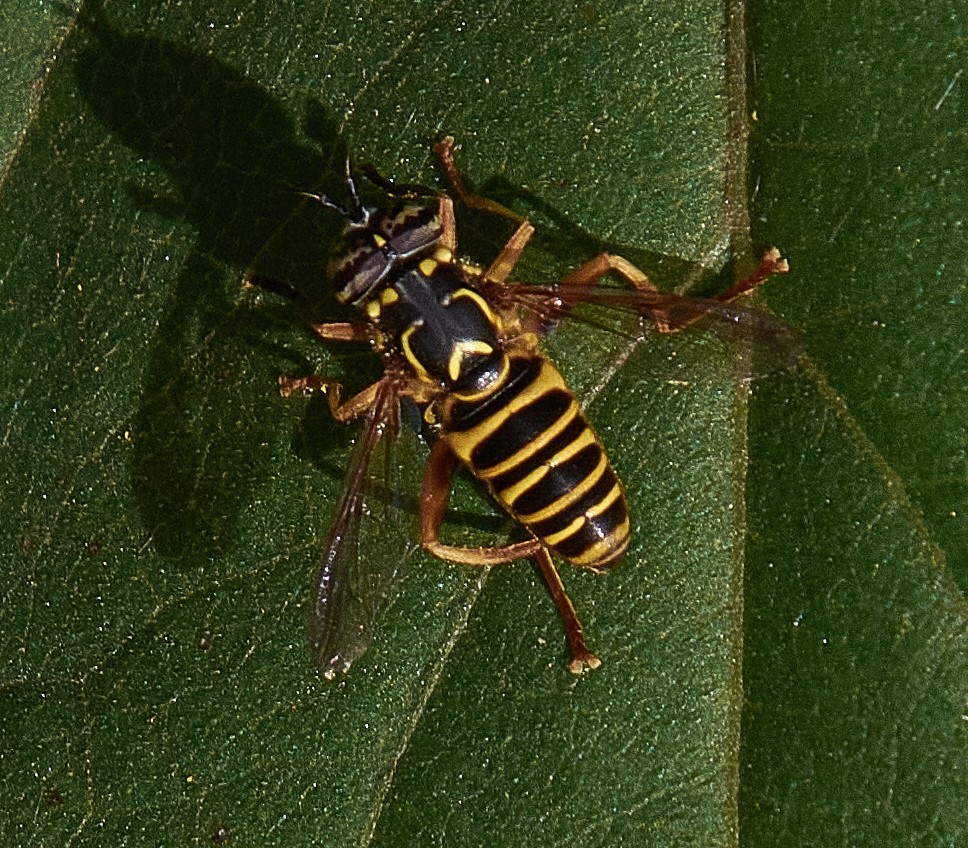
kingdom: Animalia
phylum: Arthropoda
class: Insecta
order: Diptera
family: Syrphidae
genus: Spilomyia
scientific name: Spilomyia longicornis
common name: Eastern hornet fly
